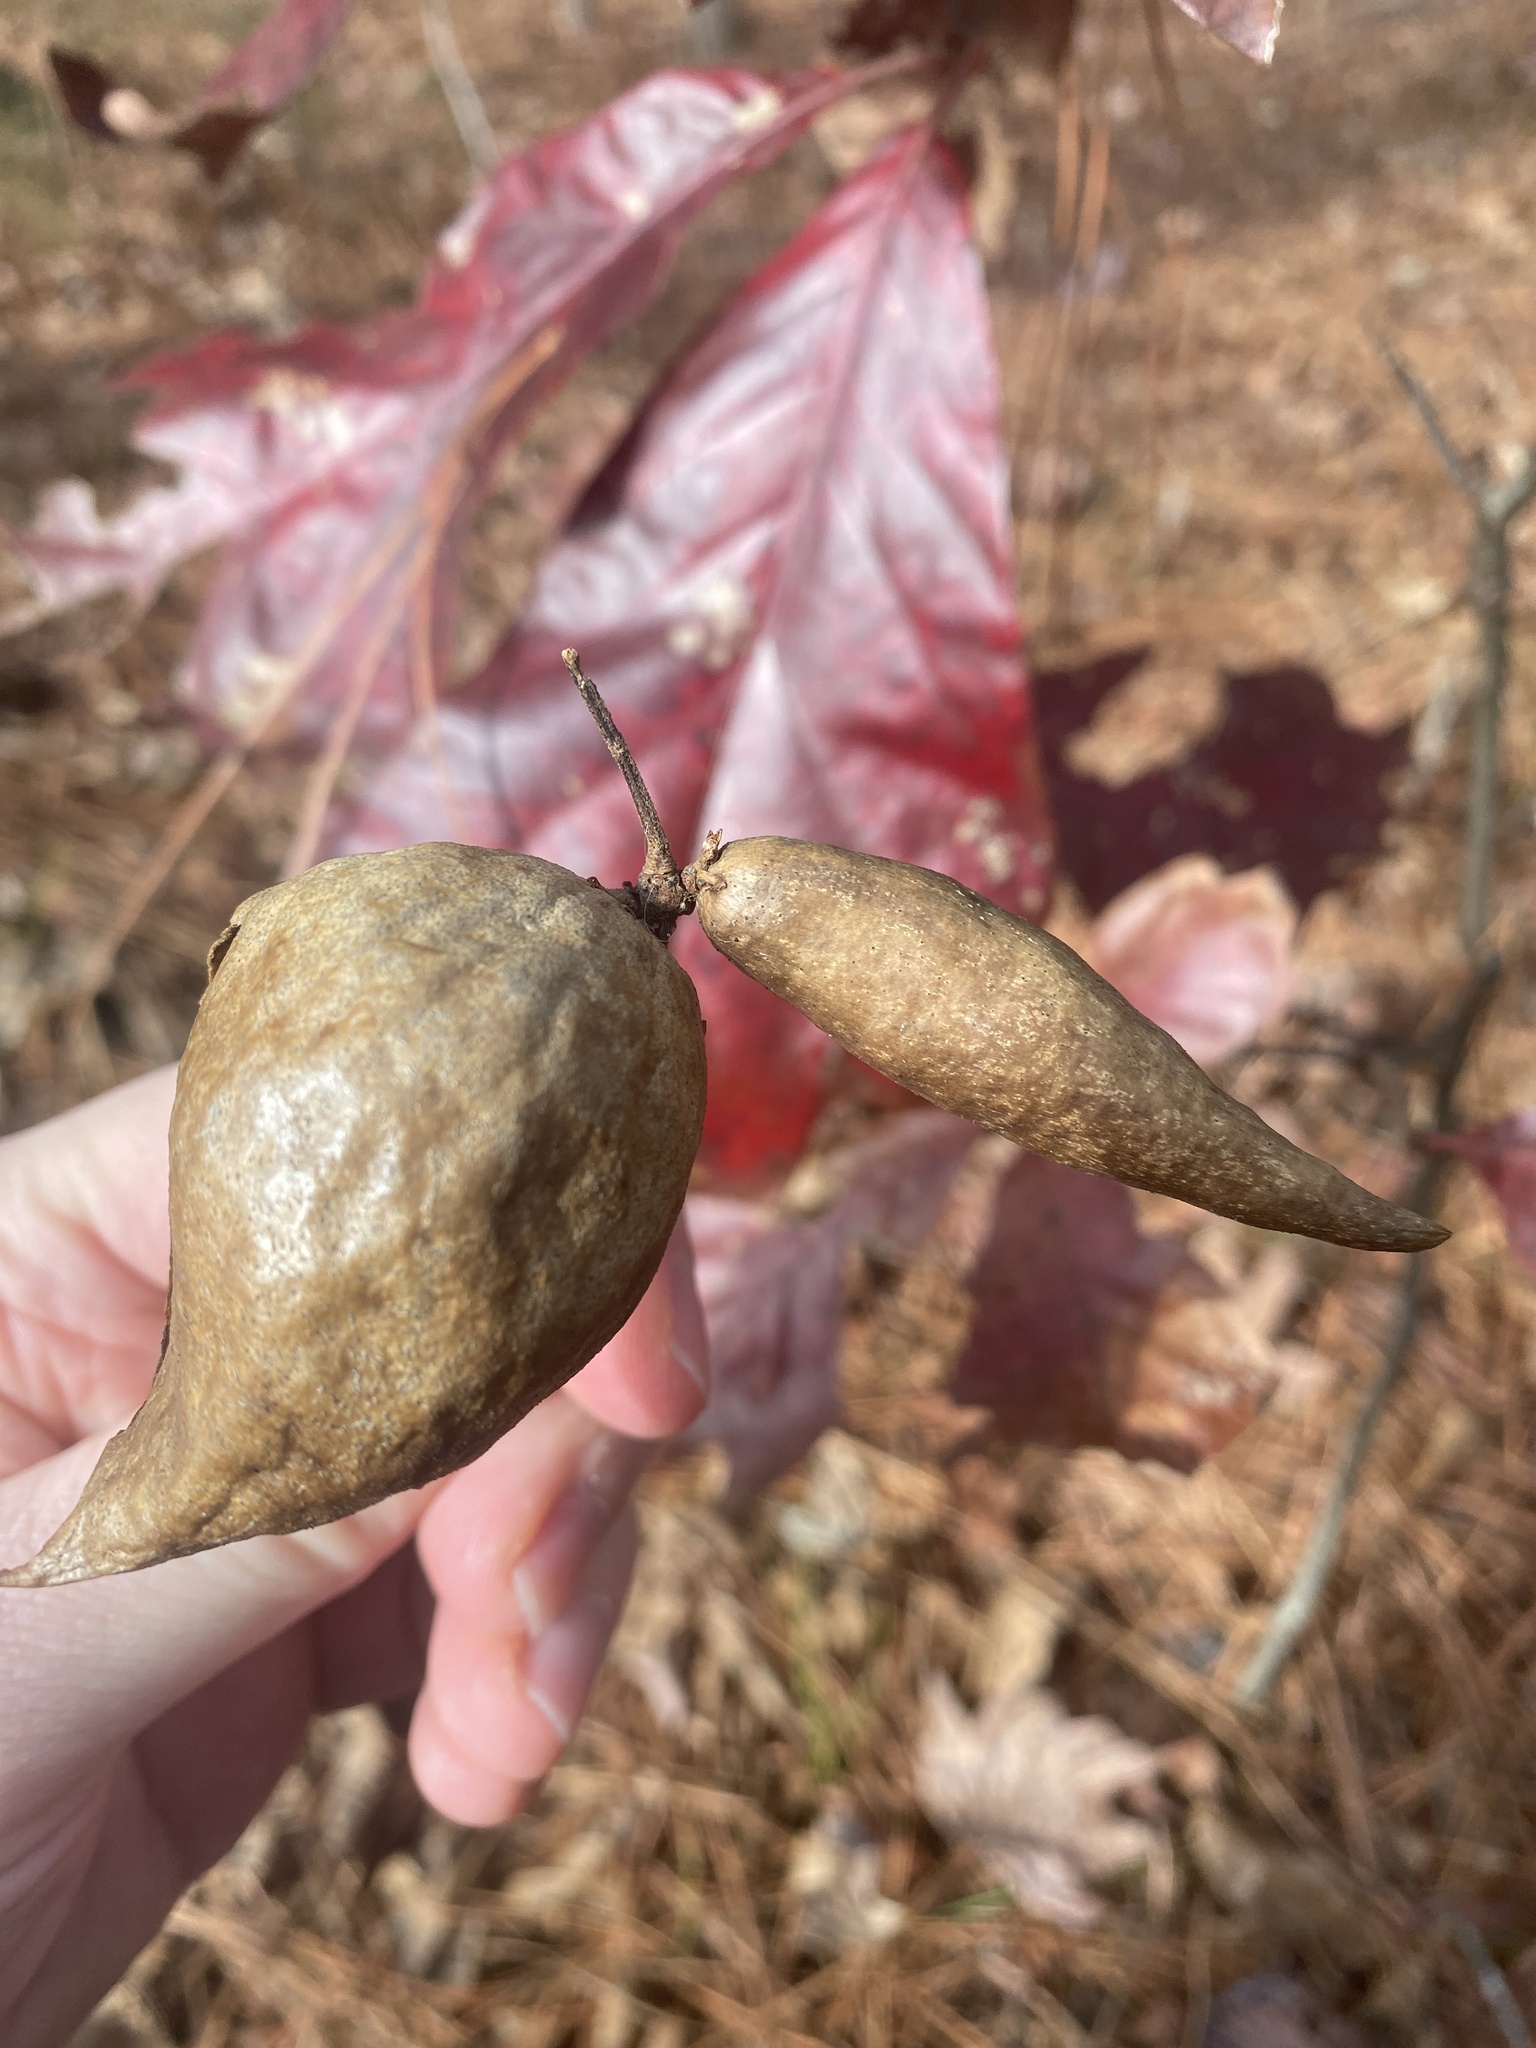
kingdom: Animalia
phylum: Arthropoda
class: Insecta
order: Hymenoptera
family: Cynipidae
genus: Amphibolips
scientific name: Amphibolips
